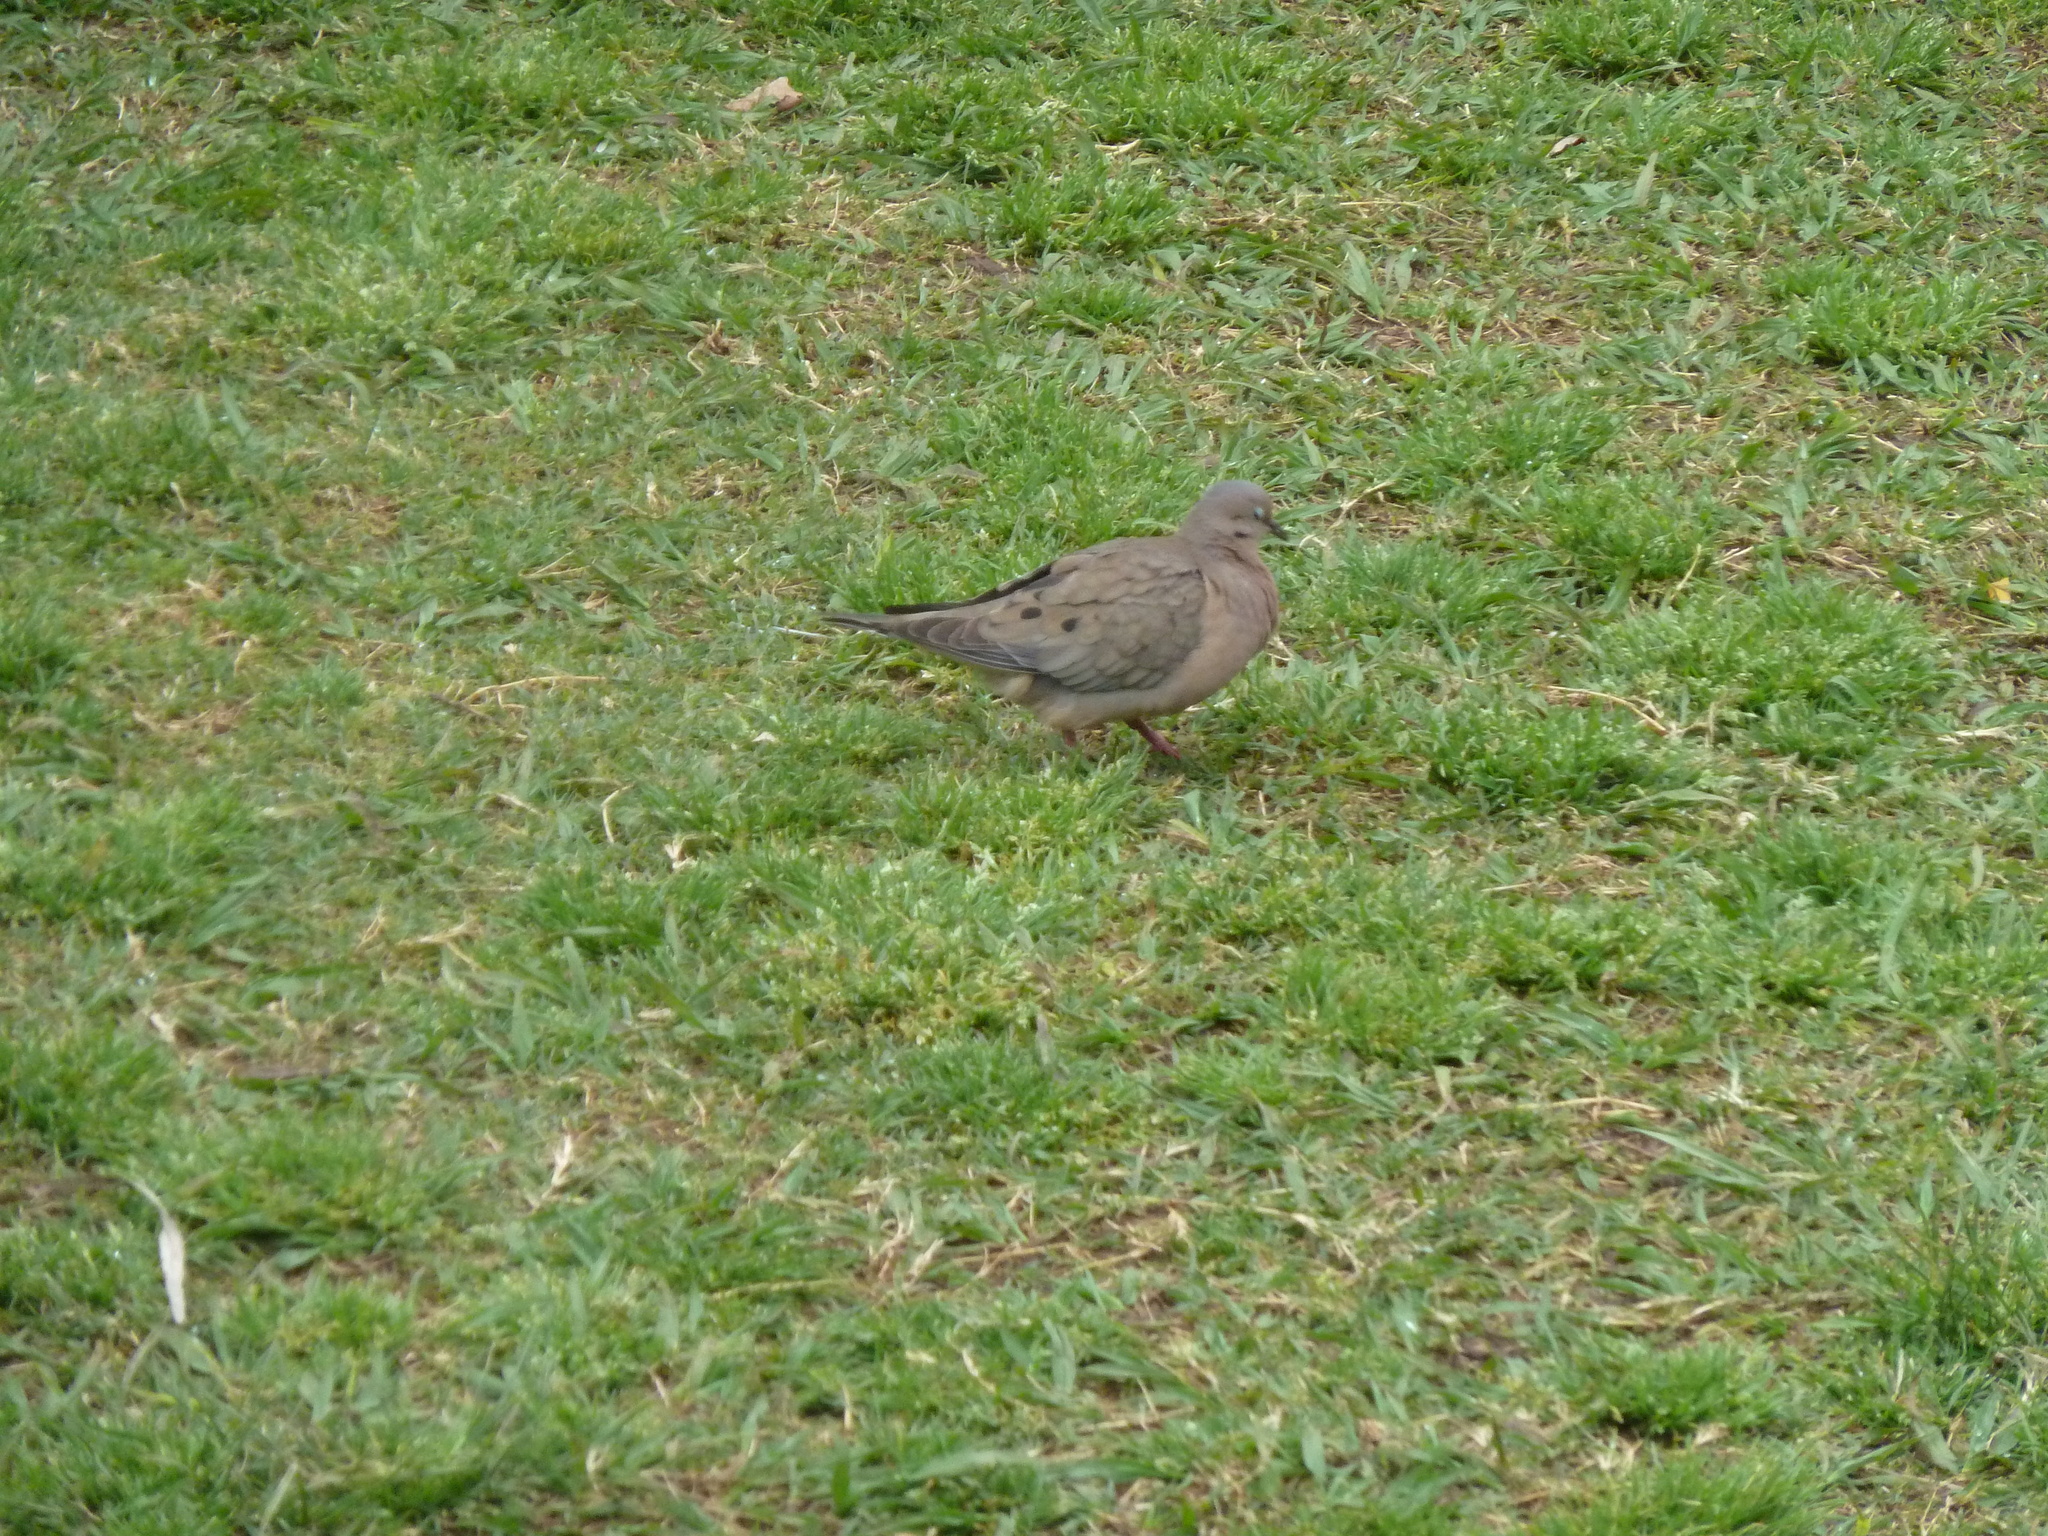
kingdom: Animalia
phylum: Chordata
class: Aves
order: Columbiformes
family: Columbidae
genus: Zenaida
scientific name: Zenaida auriculata
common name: Eared dove
